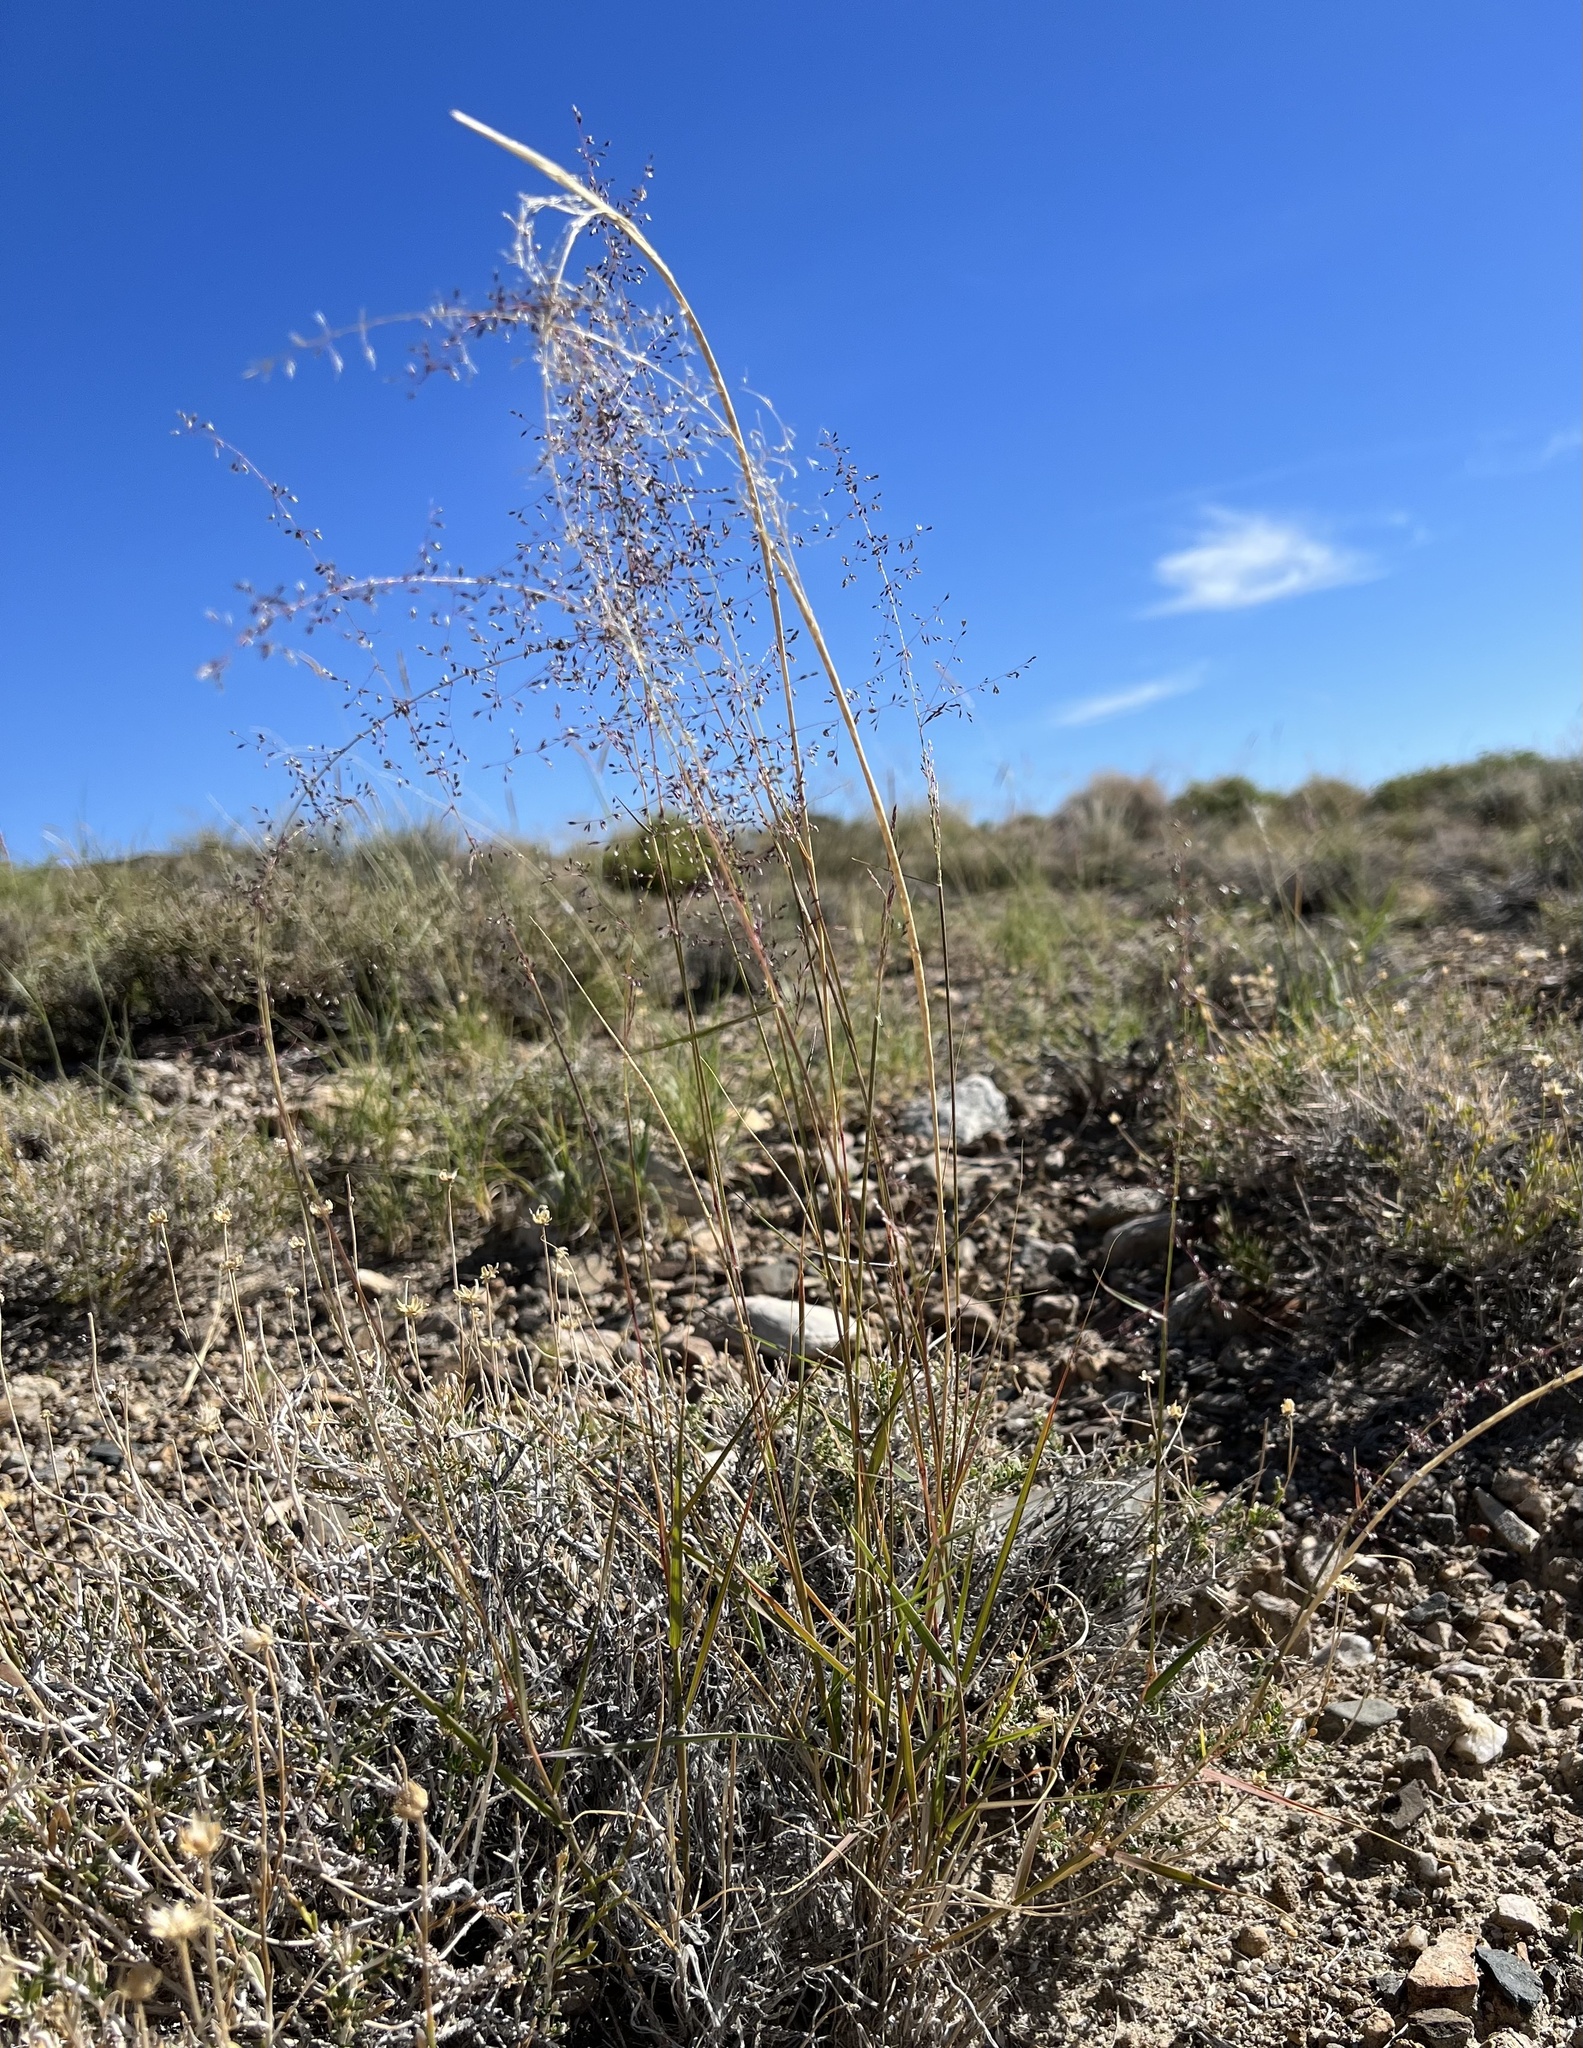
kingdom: Plantae
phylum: Tracheophyta
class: Liliopsida
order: Poales
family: Poaceae
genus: Sporobolus
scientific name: Sporobolus flexuosus
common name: Mesa dropseed
